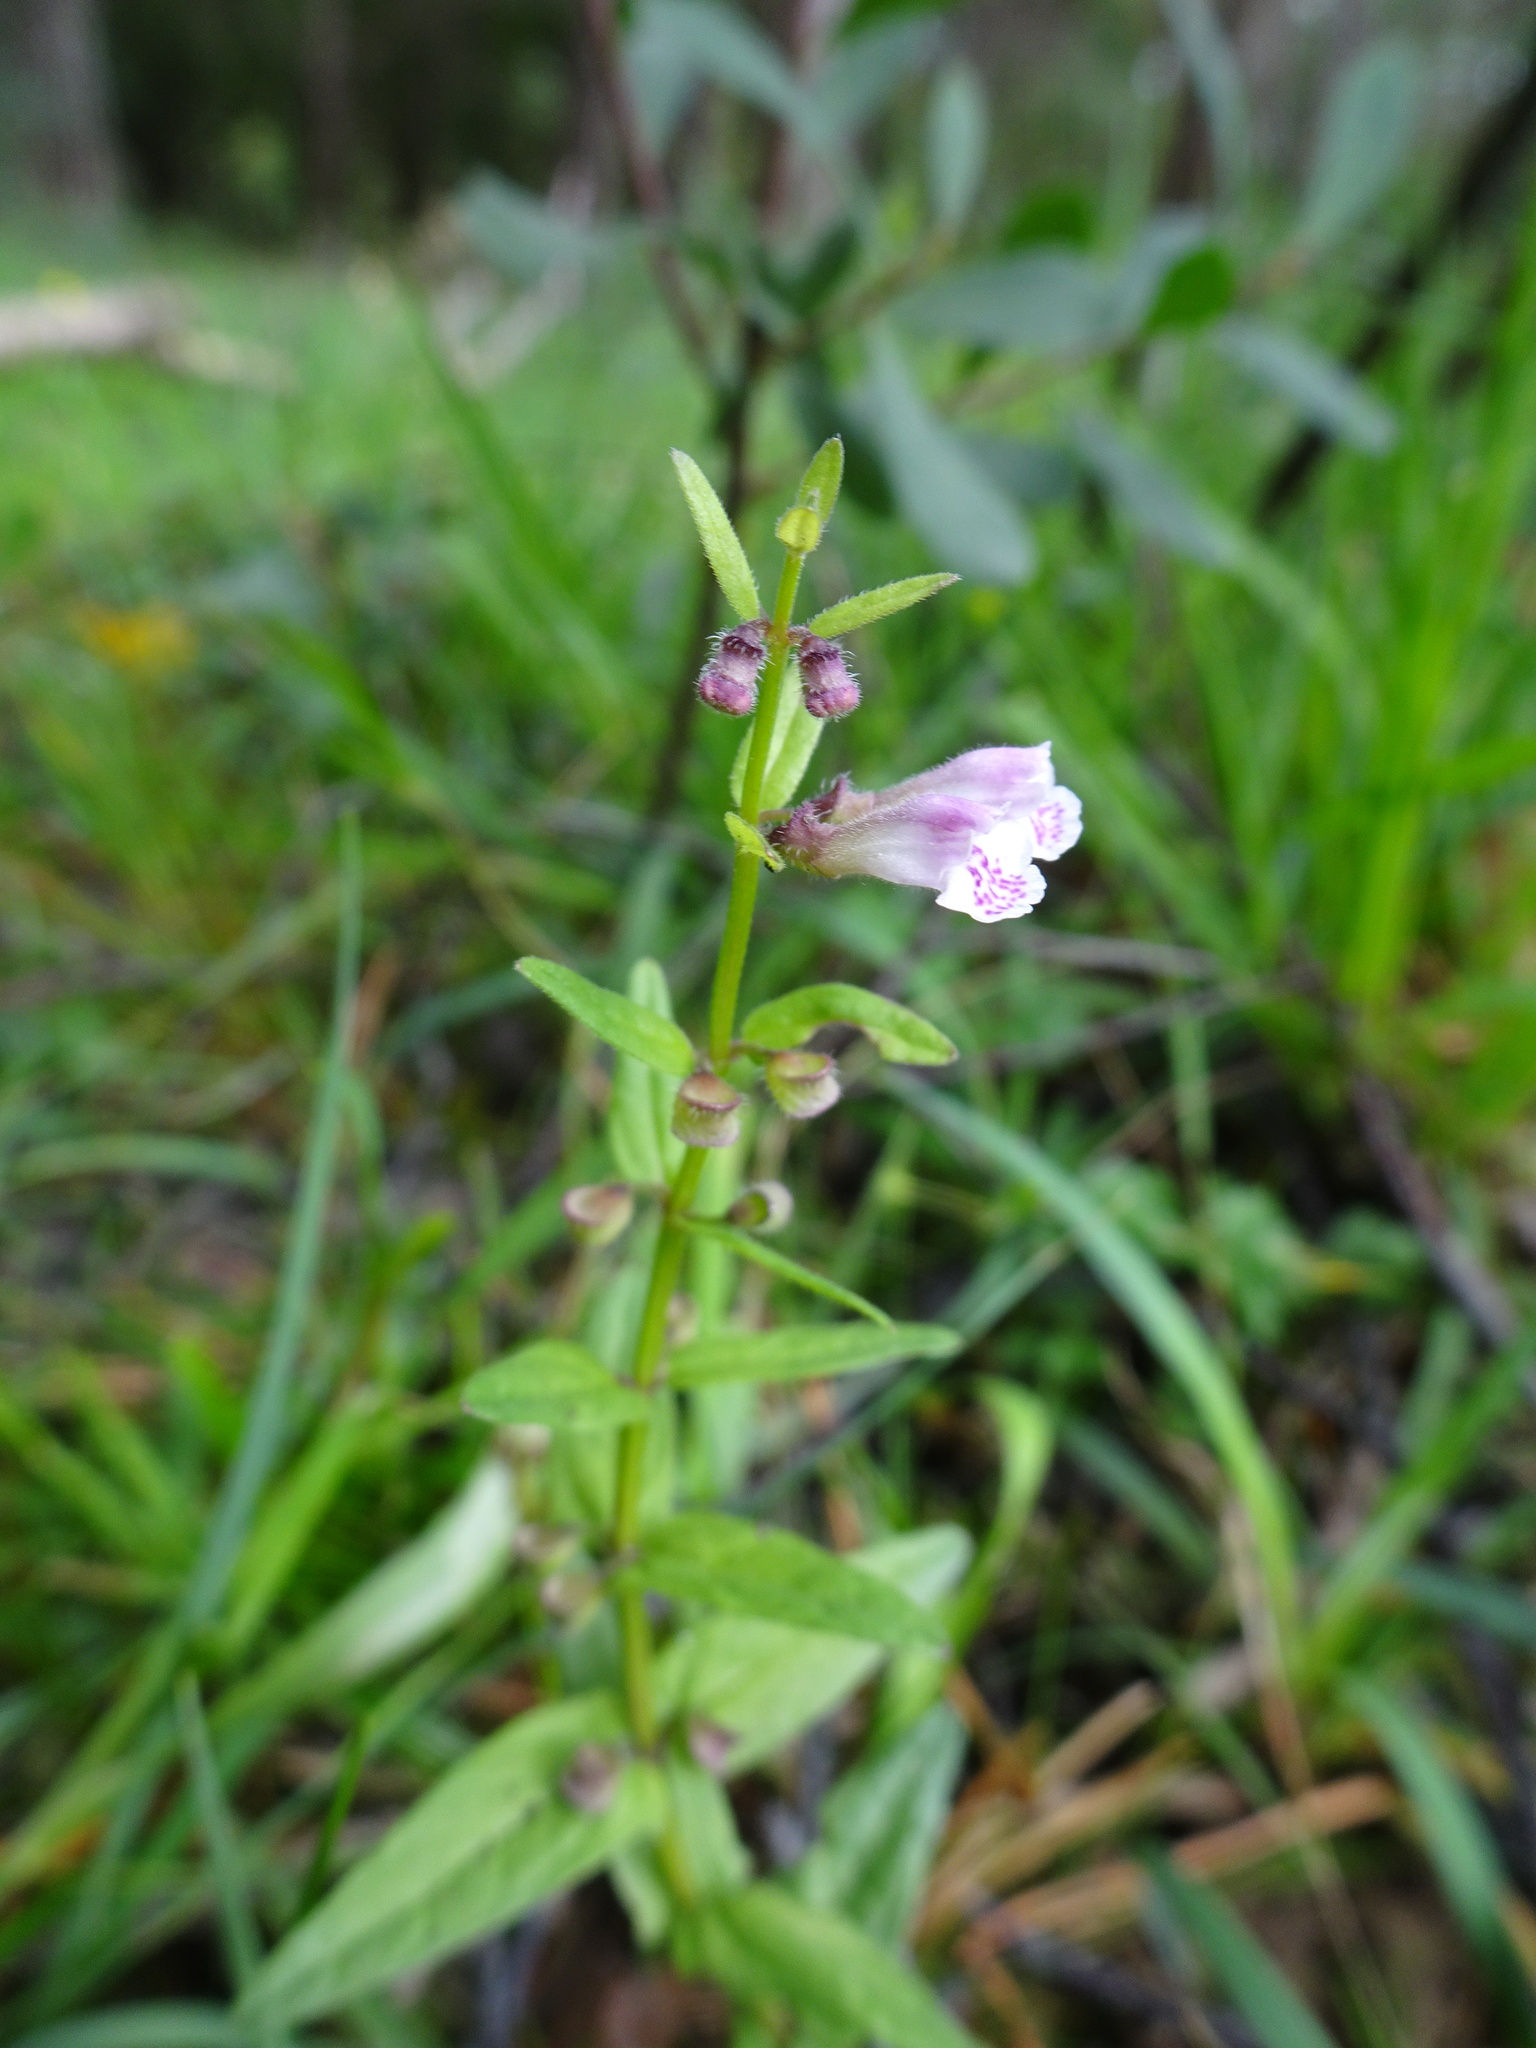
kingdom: Plantae
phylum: Tracheophyta
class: Magnoliopsida
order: Lamiales
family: Lamiaceae
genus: Scutellaria
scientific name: Scutellaria minor
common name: Lesser skullcap
